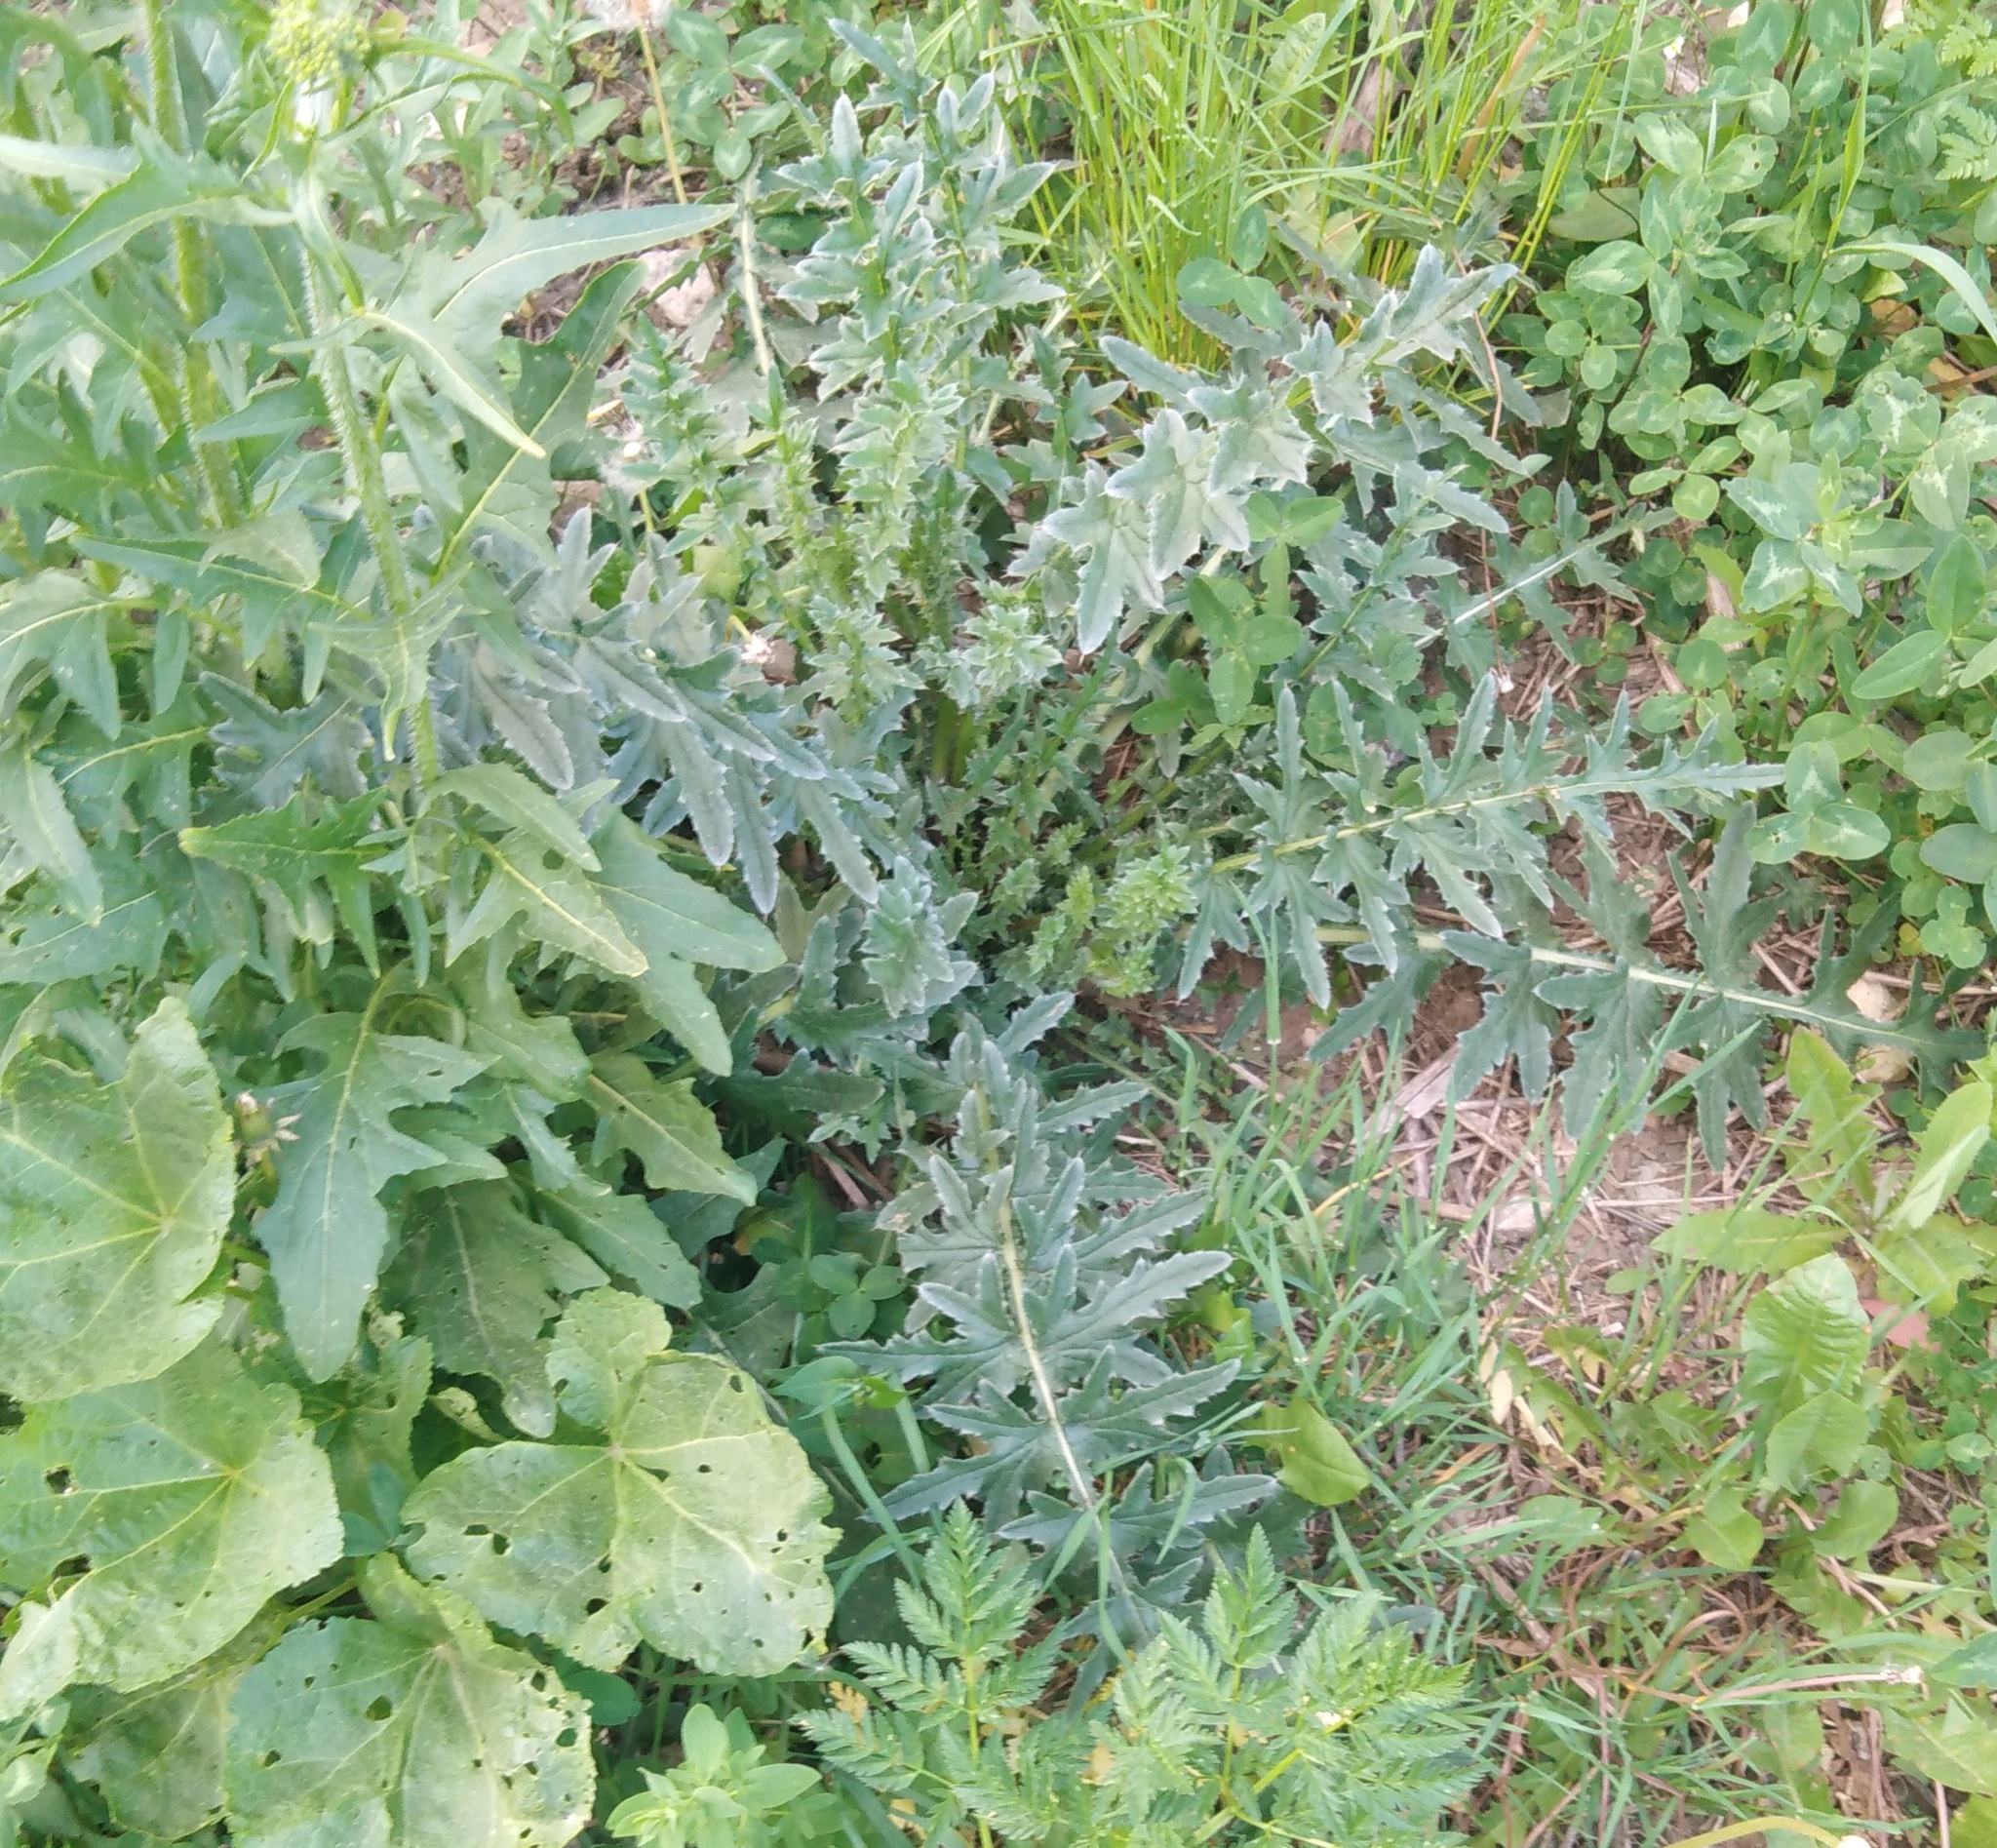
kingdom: Plantae
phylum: Tracheophyta
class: Magnoliopsida
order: Asterales
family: Asteraceae
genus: Carduus
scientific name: Carduus acanthoides
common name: Plumeless thistle
